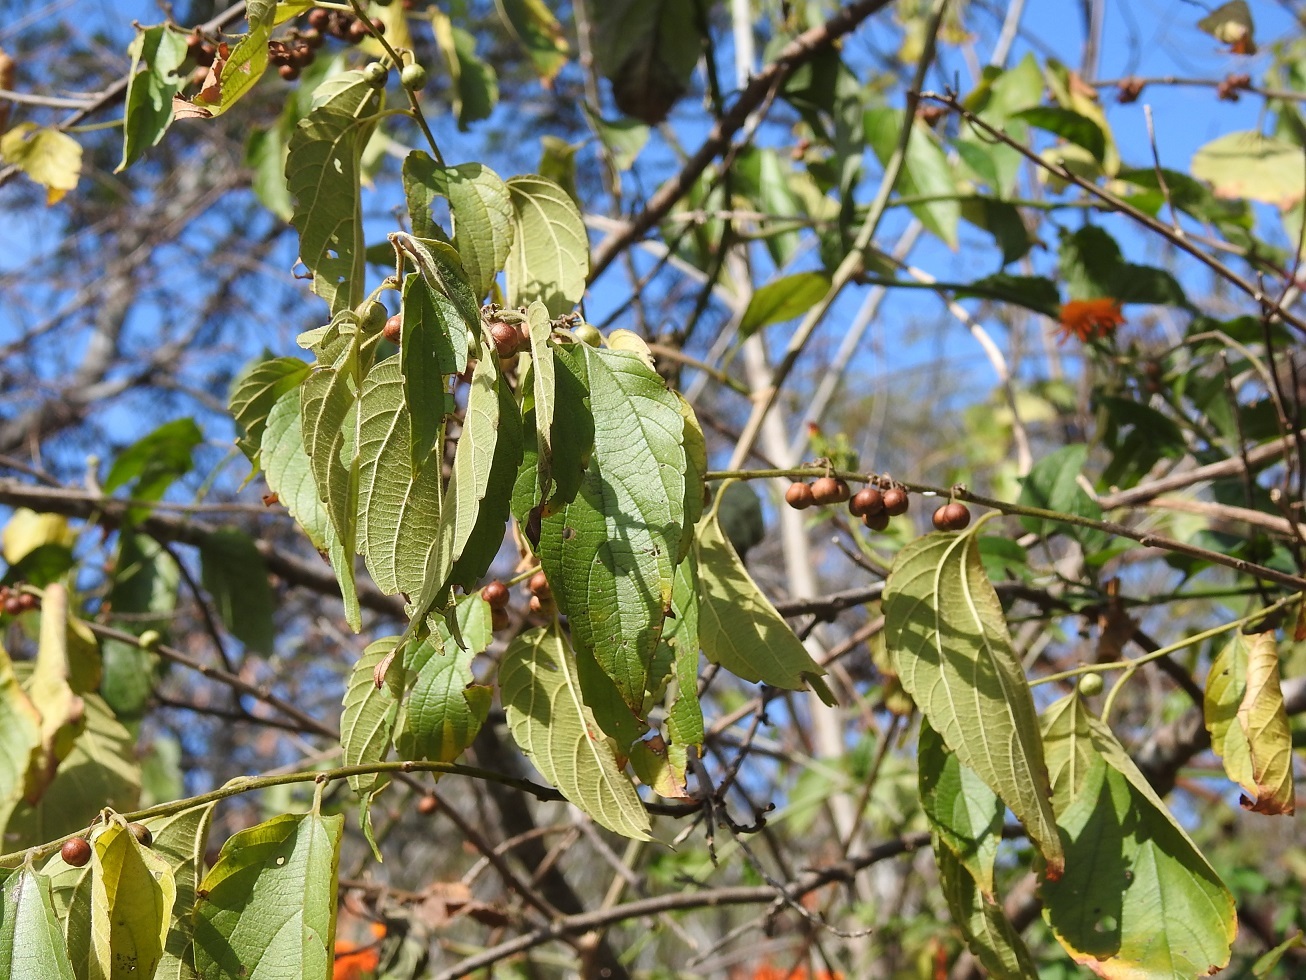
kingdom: Plantae
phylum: Tracheophyta
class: Magnoliopsida
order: Rosales
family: Cannabaceae
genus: Celtis
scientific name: Celtis caudata
